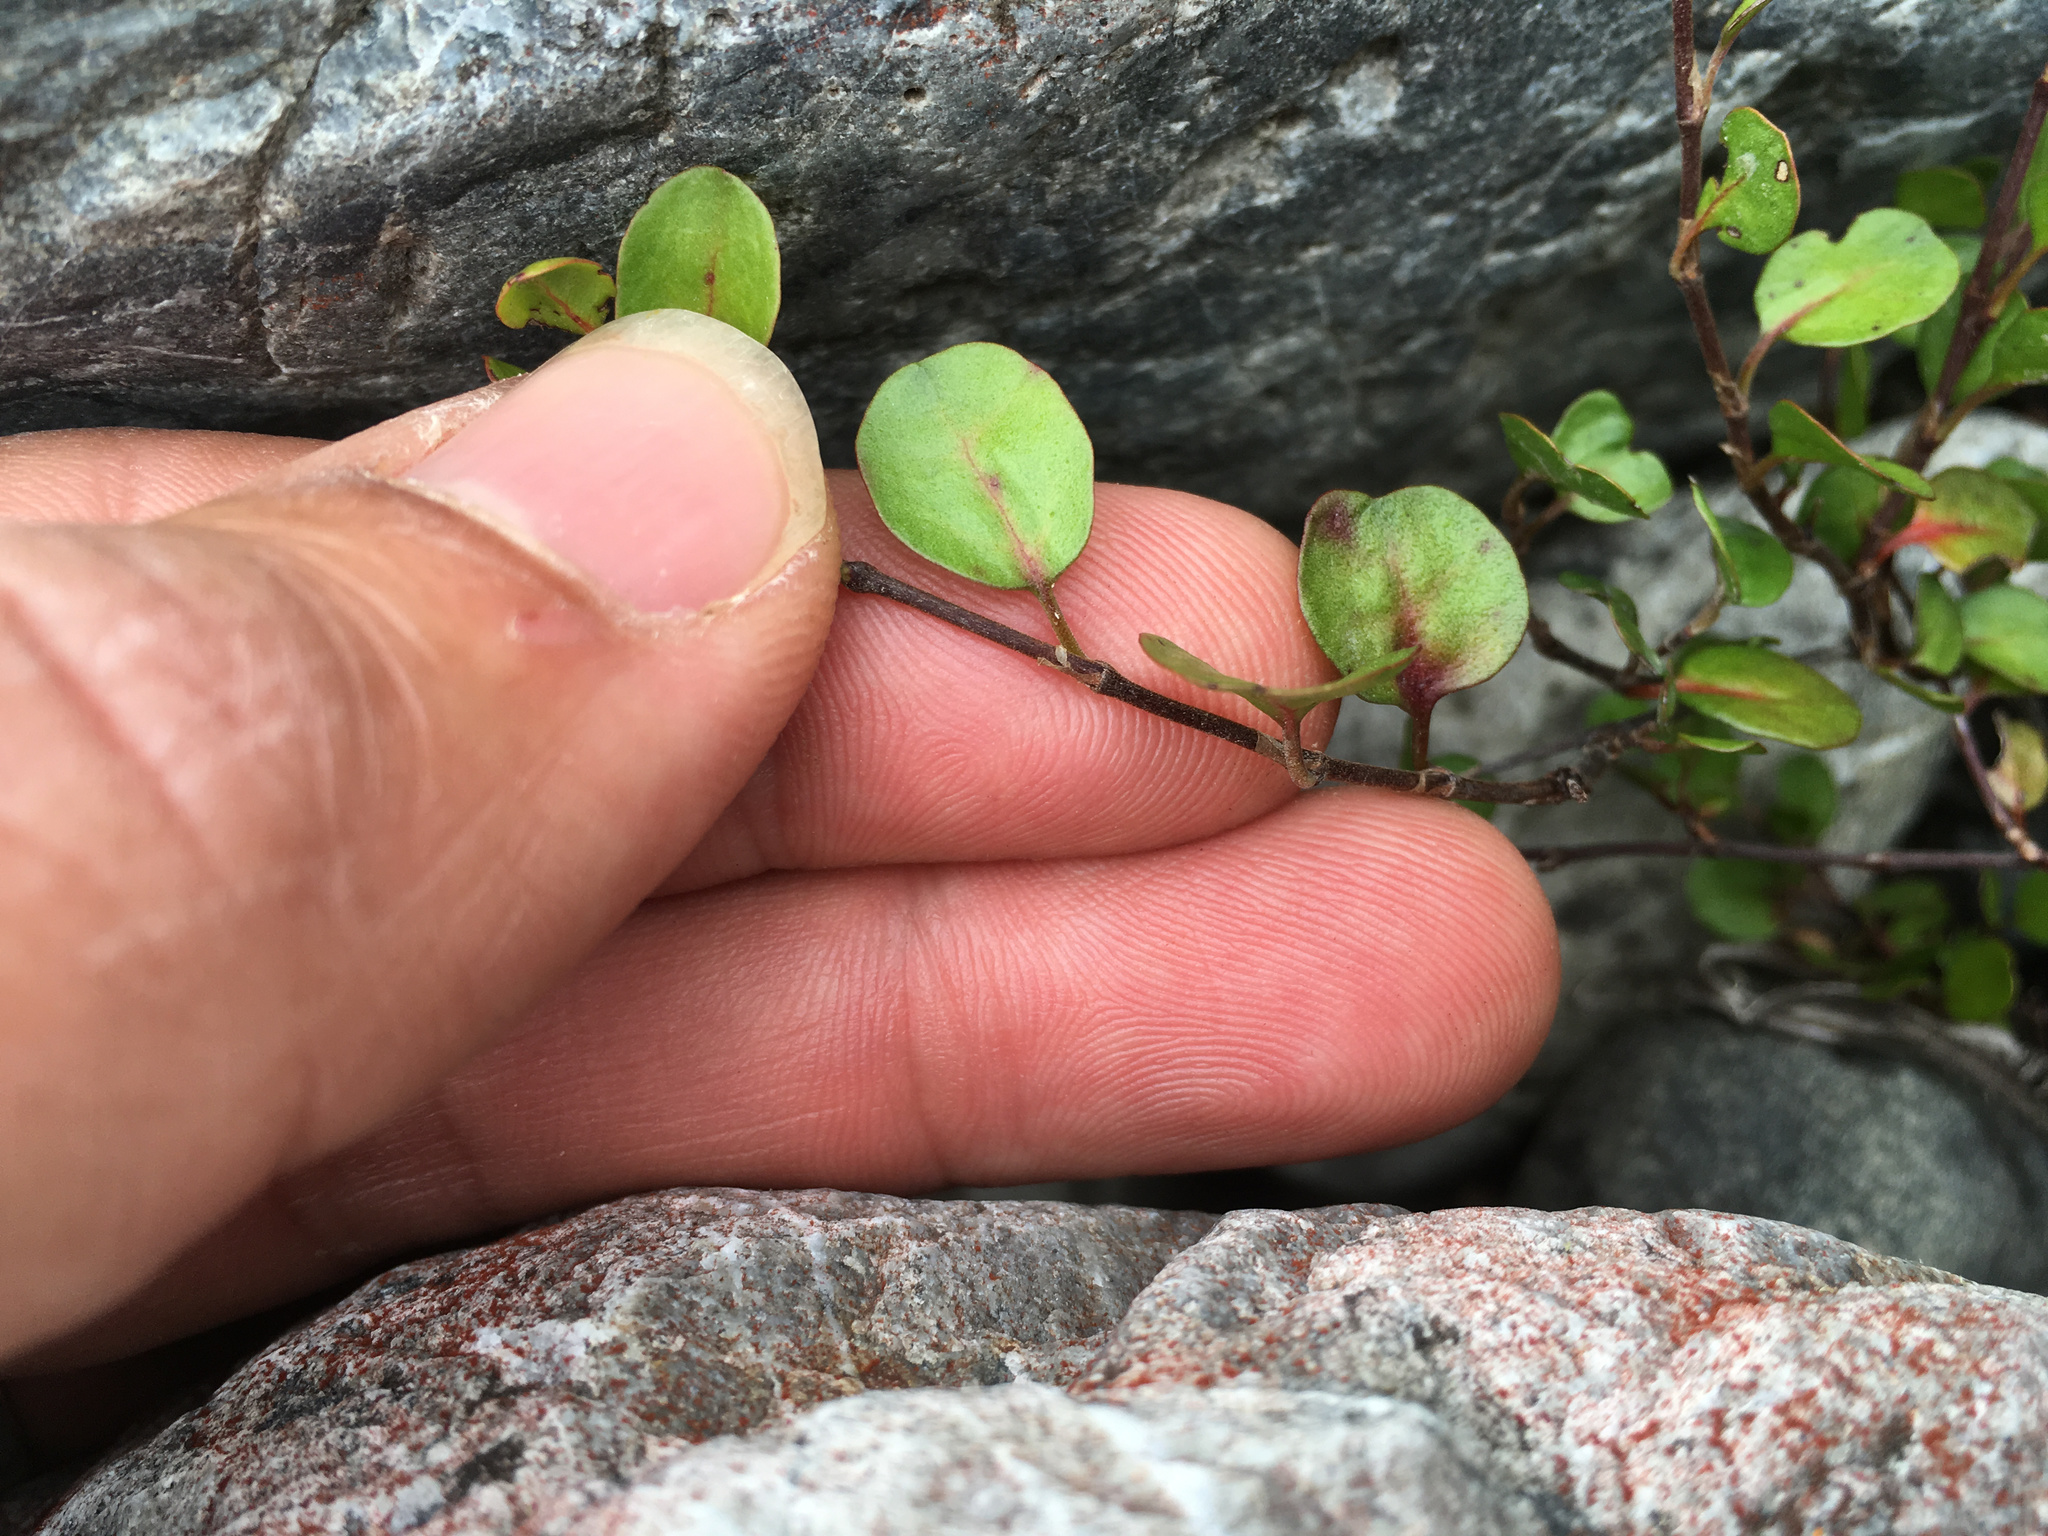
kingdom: Plantae
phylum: Tracheophyta
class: Magnoliopsida
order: Caryophyllales
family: Polygonaceae
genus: Muehlenbeckia
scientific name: Muehlenbeckia complexa
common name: Wireplant
